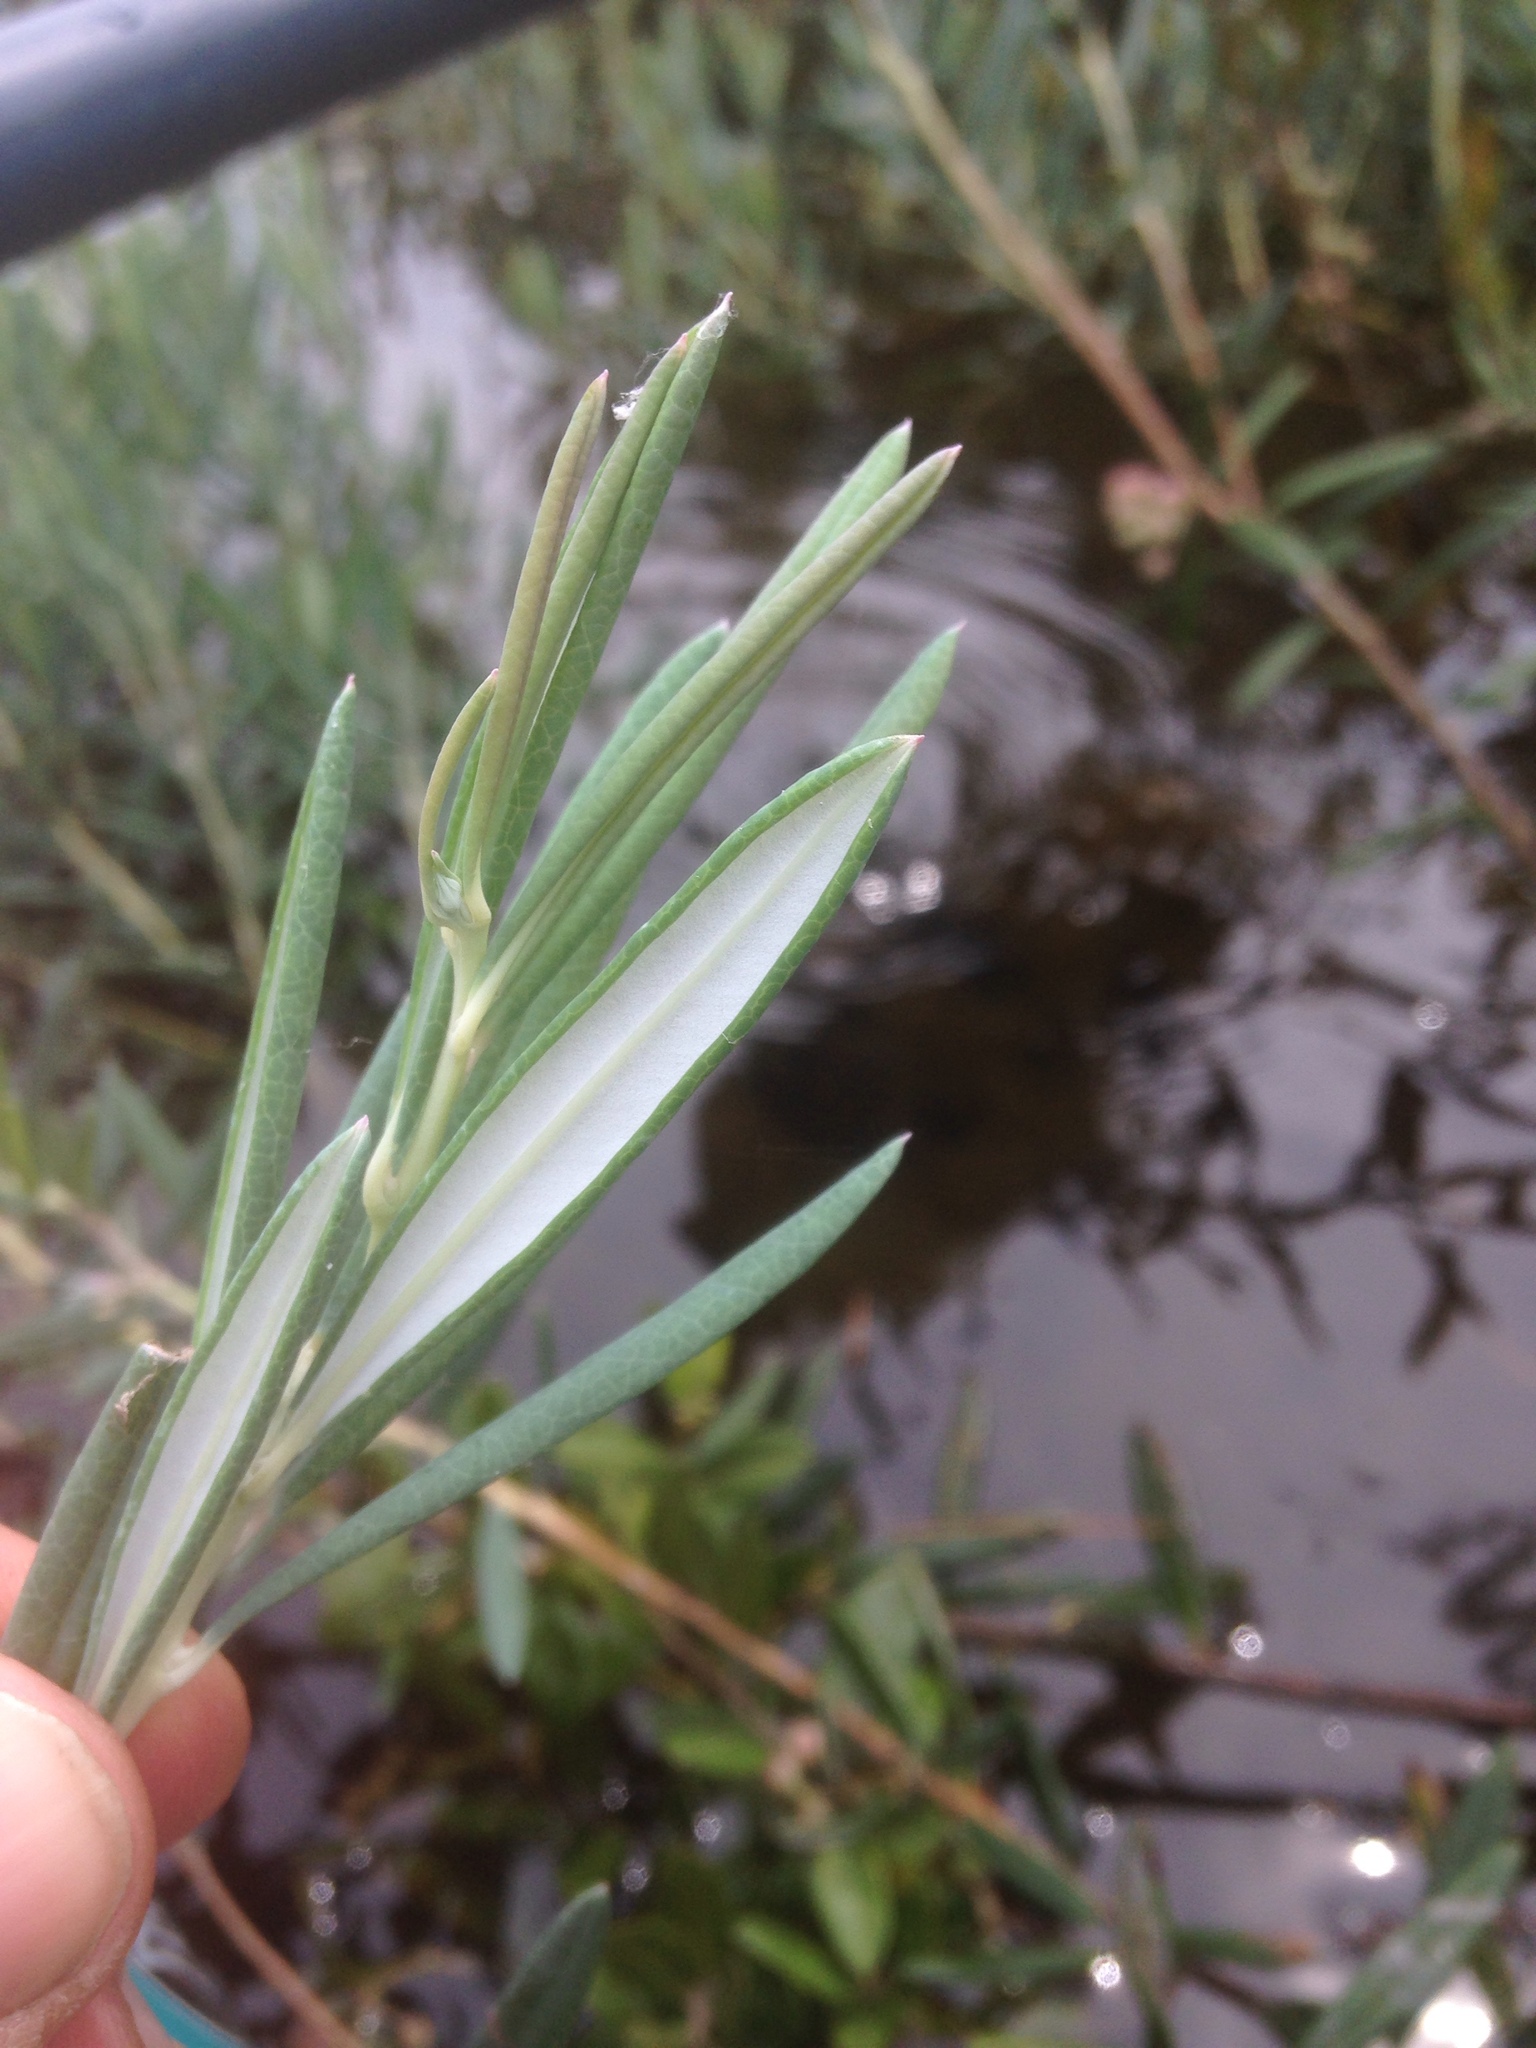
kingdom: Plantae
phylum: Tracheophyta
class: Magnoliopsida
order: Ericales
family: Ericaceae
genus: Andromeda
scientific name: Andromeda polifolia
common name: Bog-rosemary
